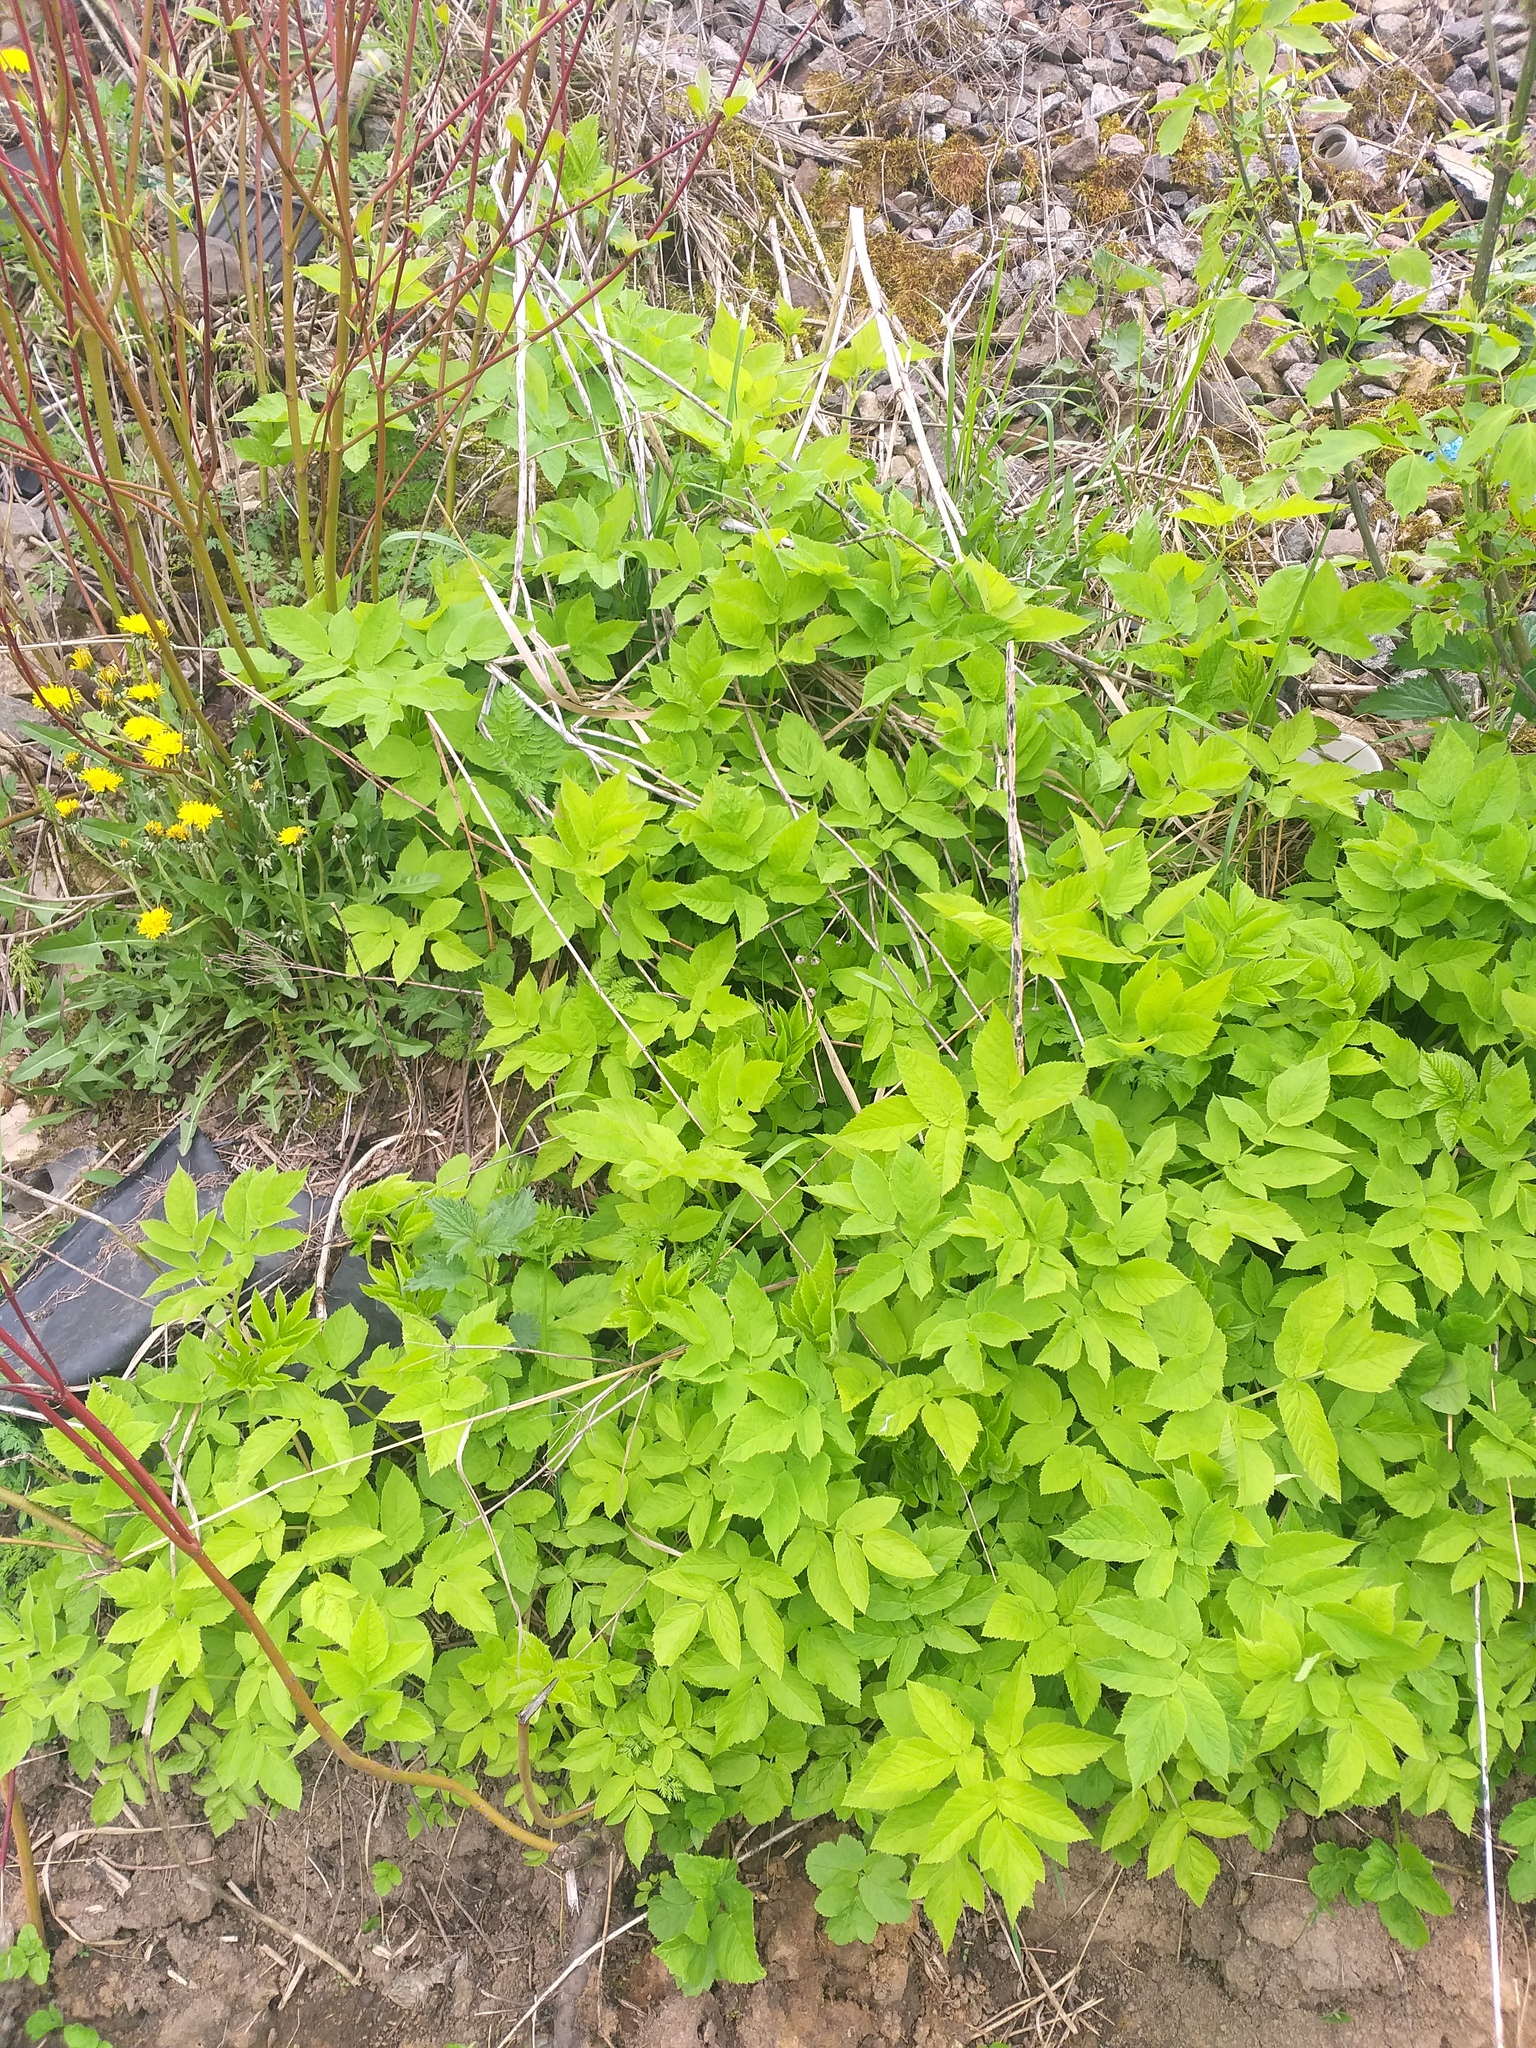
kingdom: Plantae
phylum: Tracheophyta
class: Magnoliopsida
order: Apiales
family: Apiaceae
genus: Aegopodium
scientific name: Aegopodium podagraria
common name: Ground-elder
